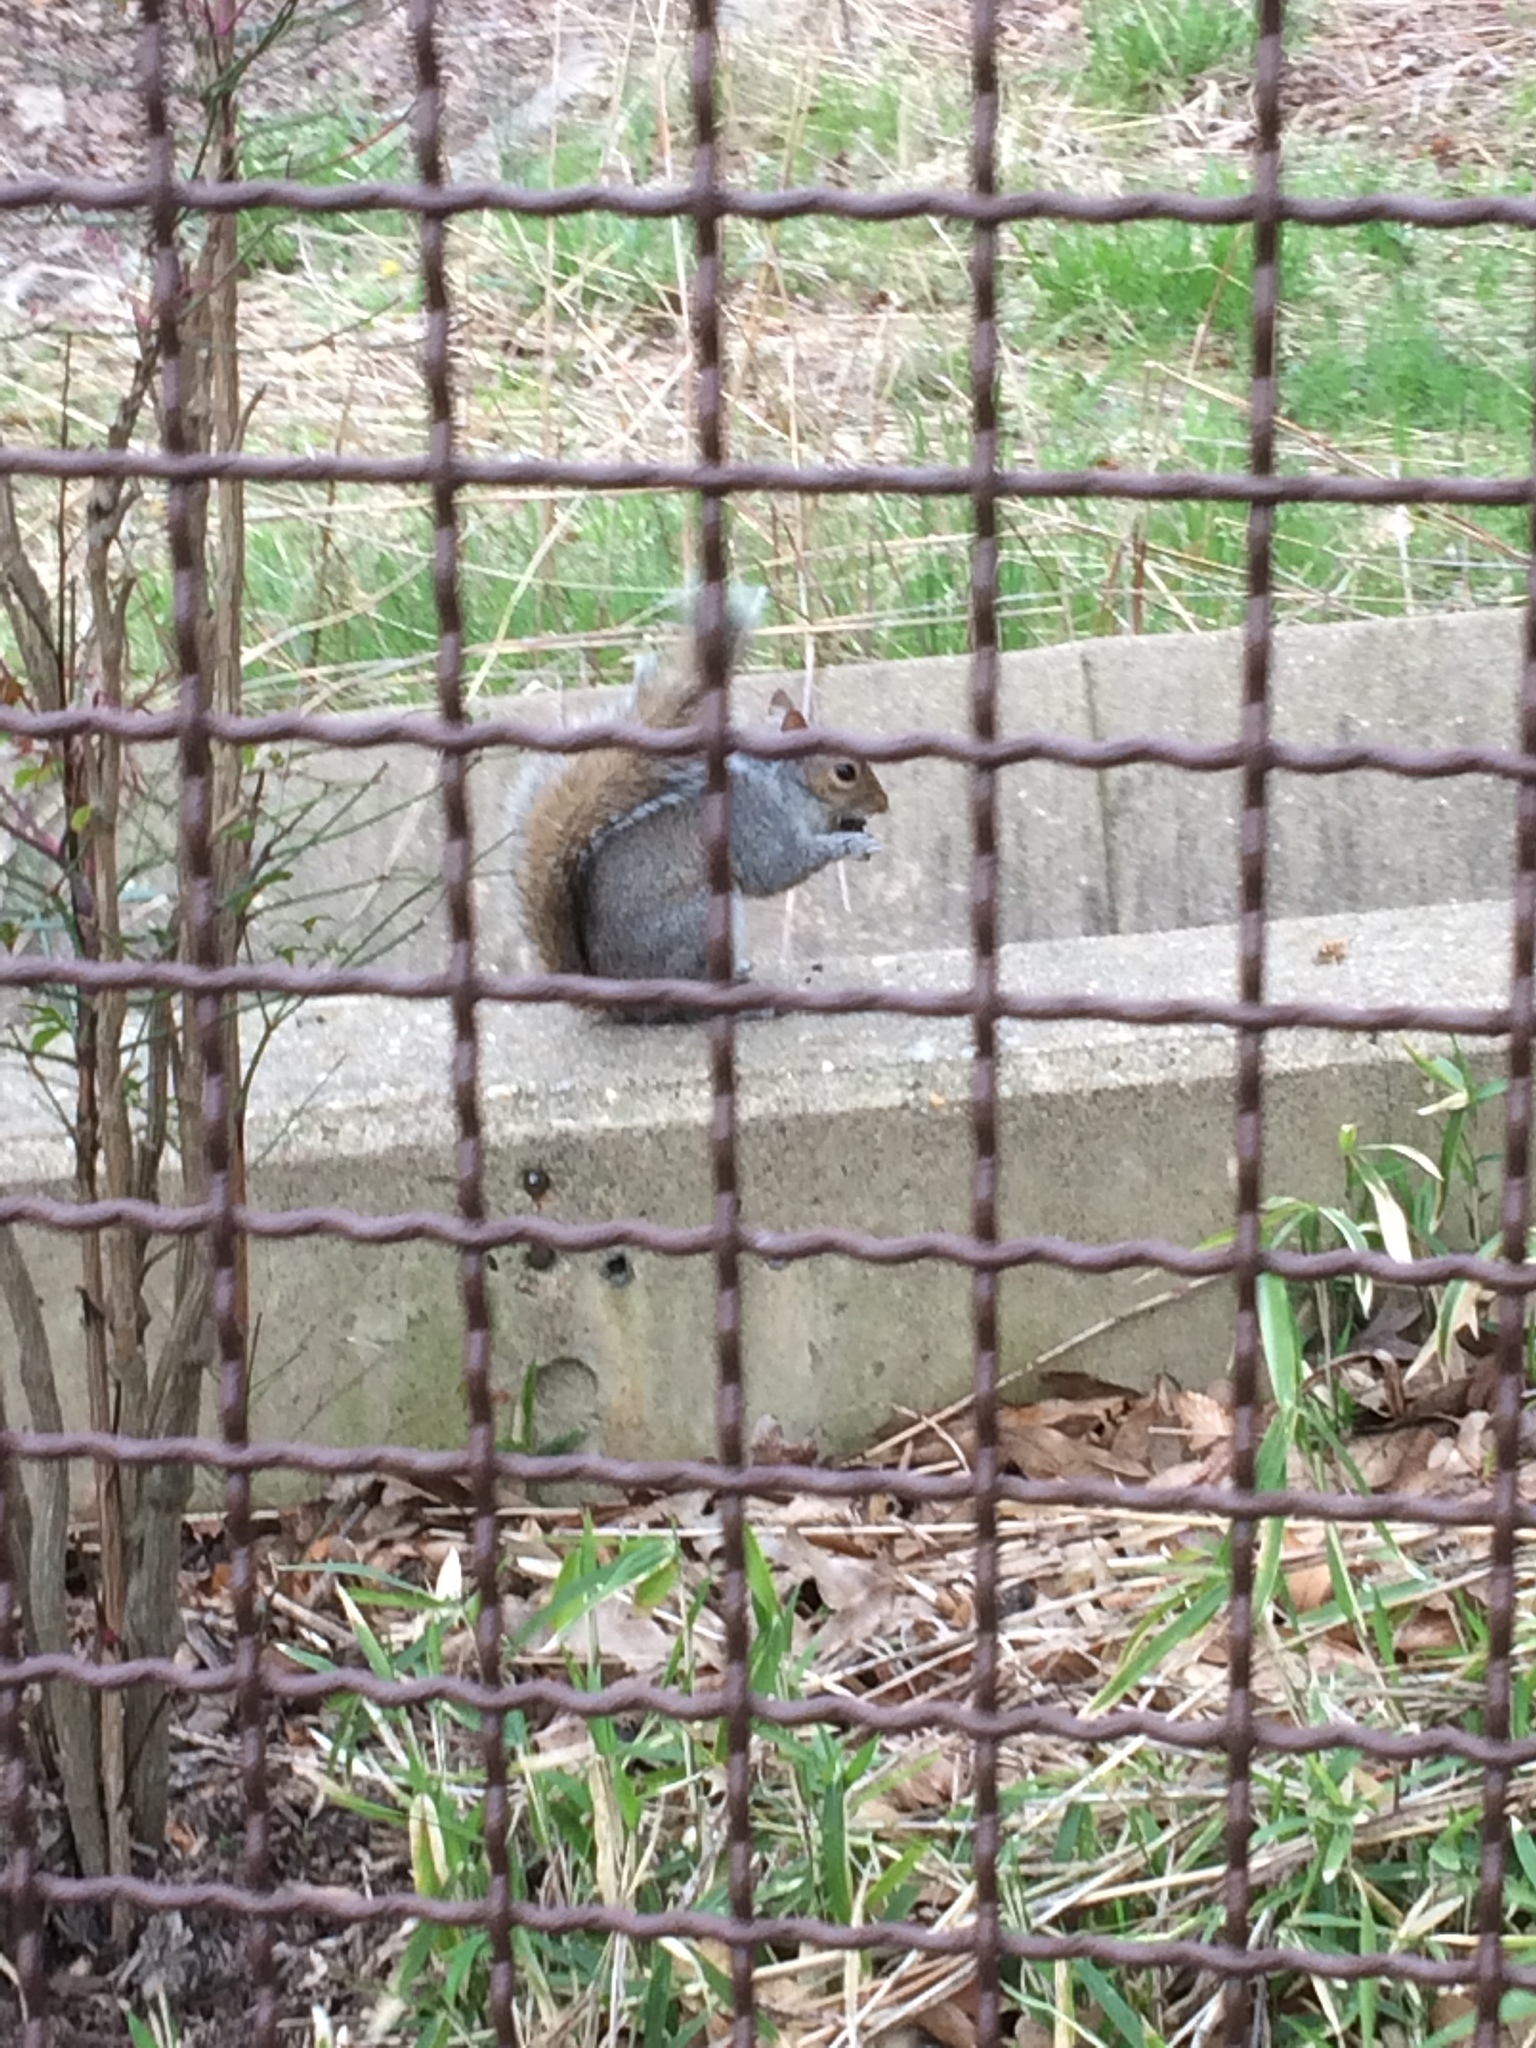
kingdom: Animalia
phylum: Chordata
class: Mammalia
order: Rodentia
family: Sciuridae
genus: Sciurus
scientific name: Sciurus carolinensis
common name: Eastern gray squirrel
